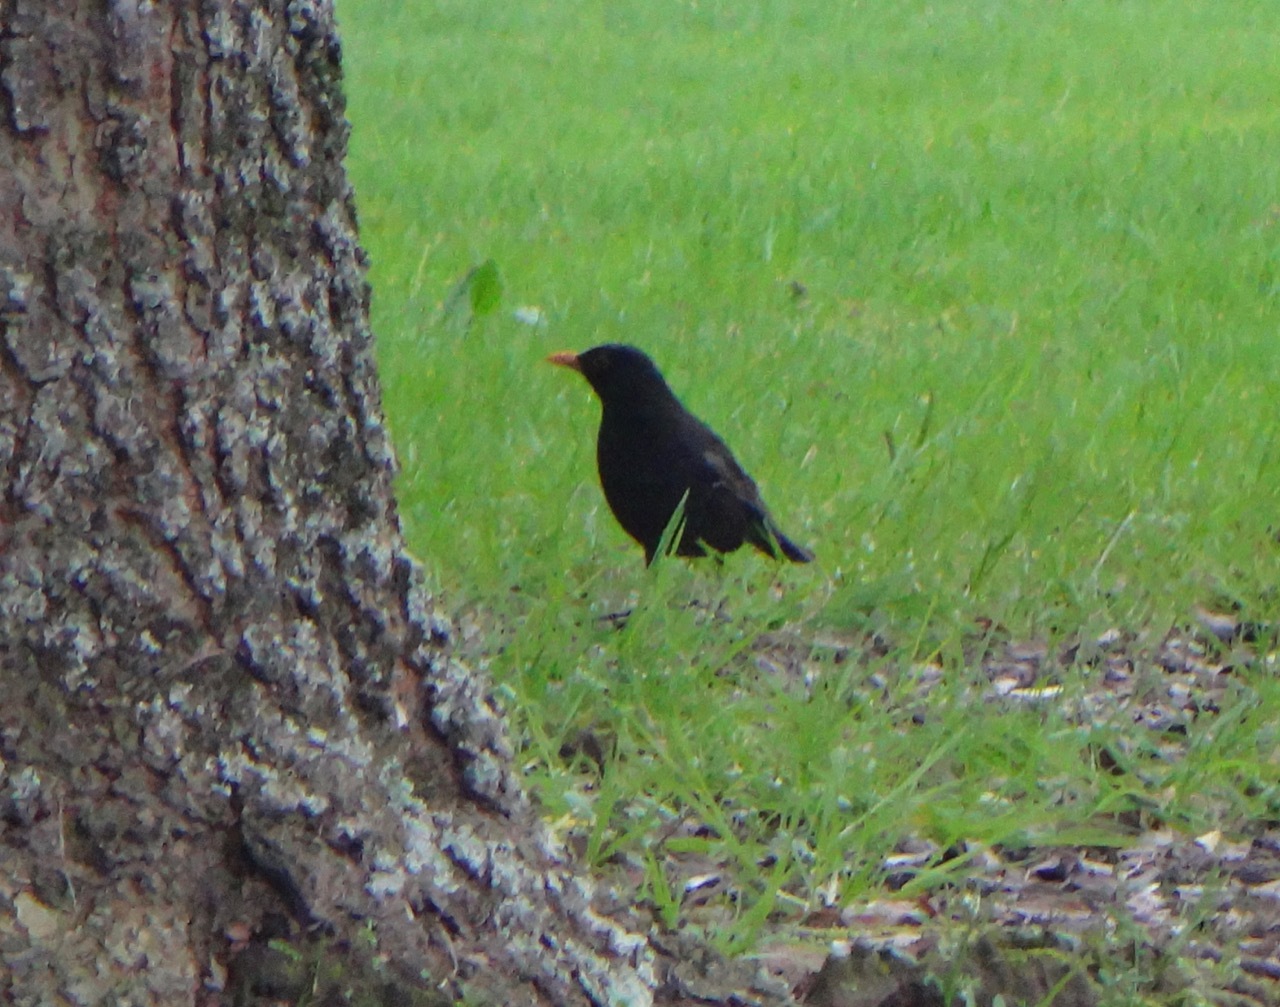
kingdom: Animalia
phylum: Chordata
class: Aves
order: Passeriformes
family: Turdidae
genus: Turdus
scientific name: Turdus merula
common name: Common blackbird
